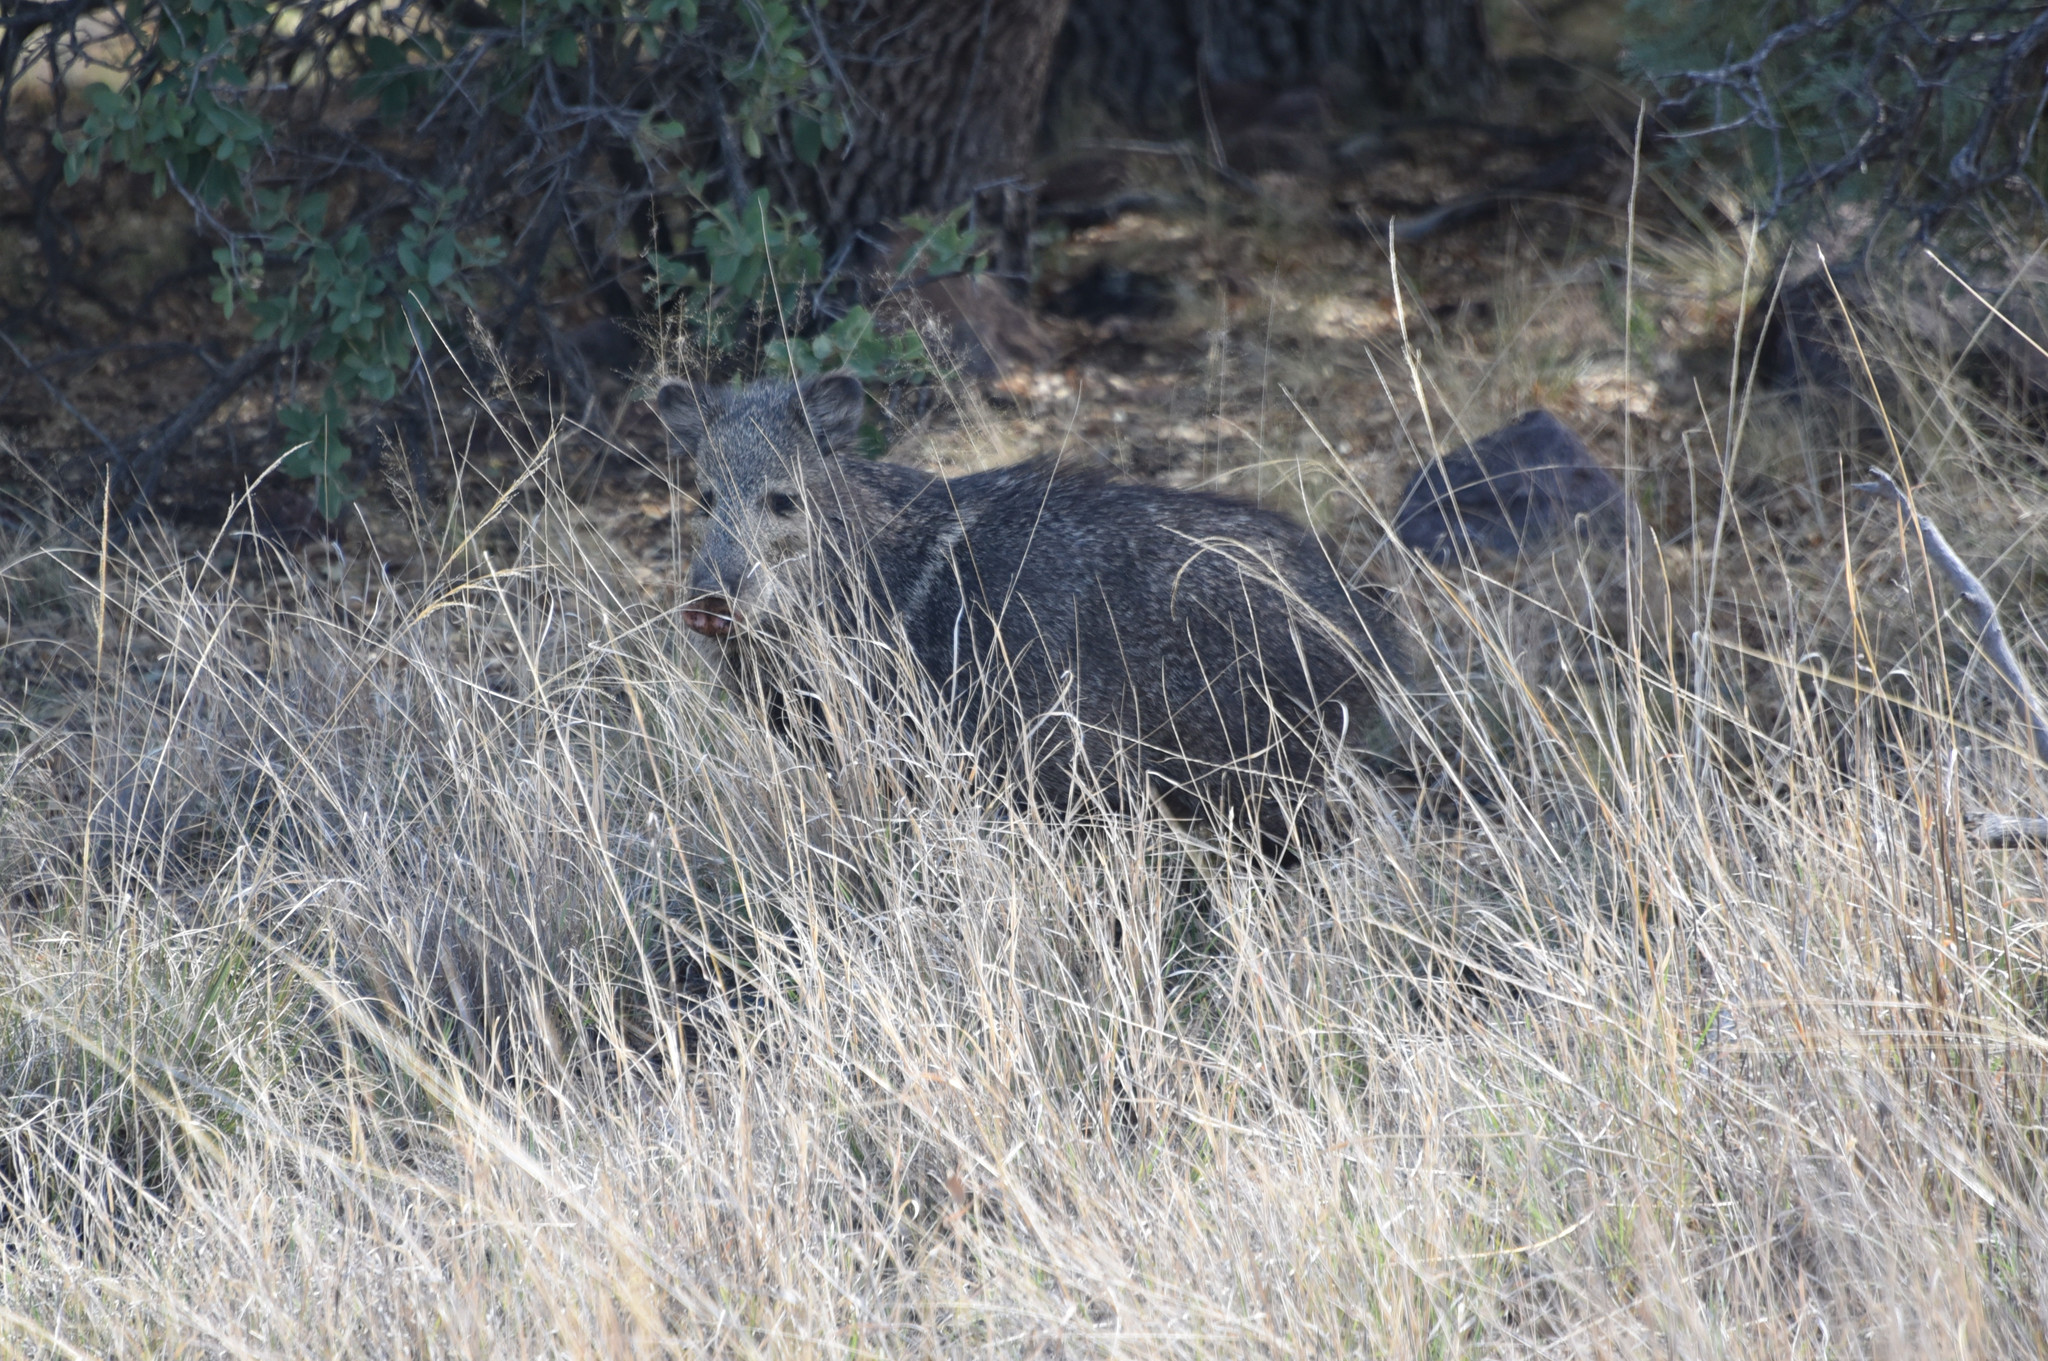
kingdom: Animalia
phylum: Chordata
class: Mammalia
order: Artiodactyla
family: Tayassuidae
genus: Pecari
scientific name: Pecari tajacu
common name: Collared peccary
